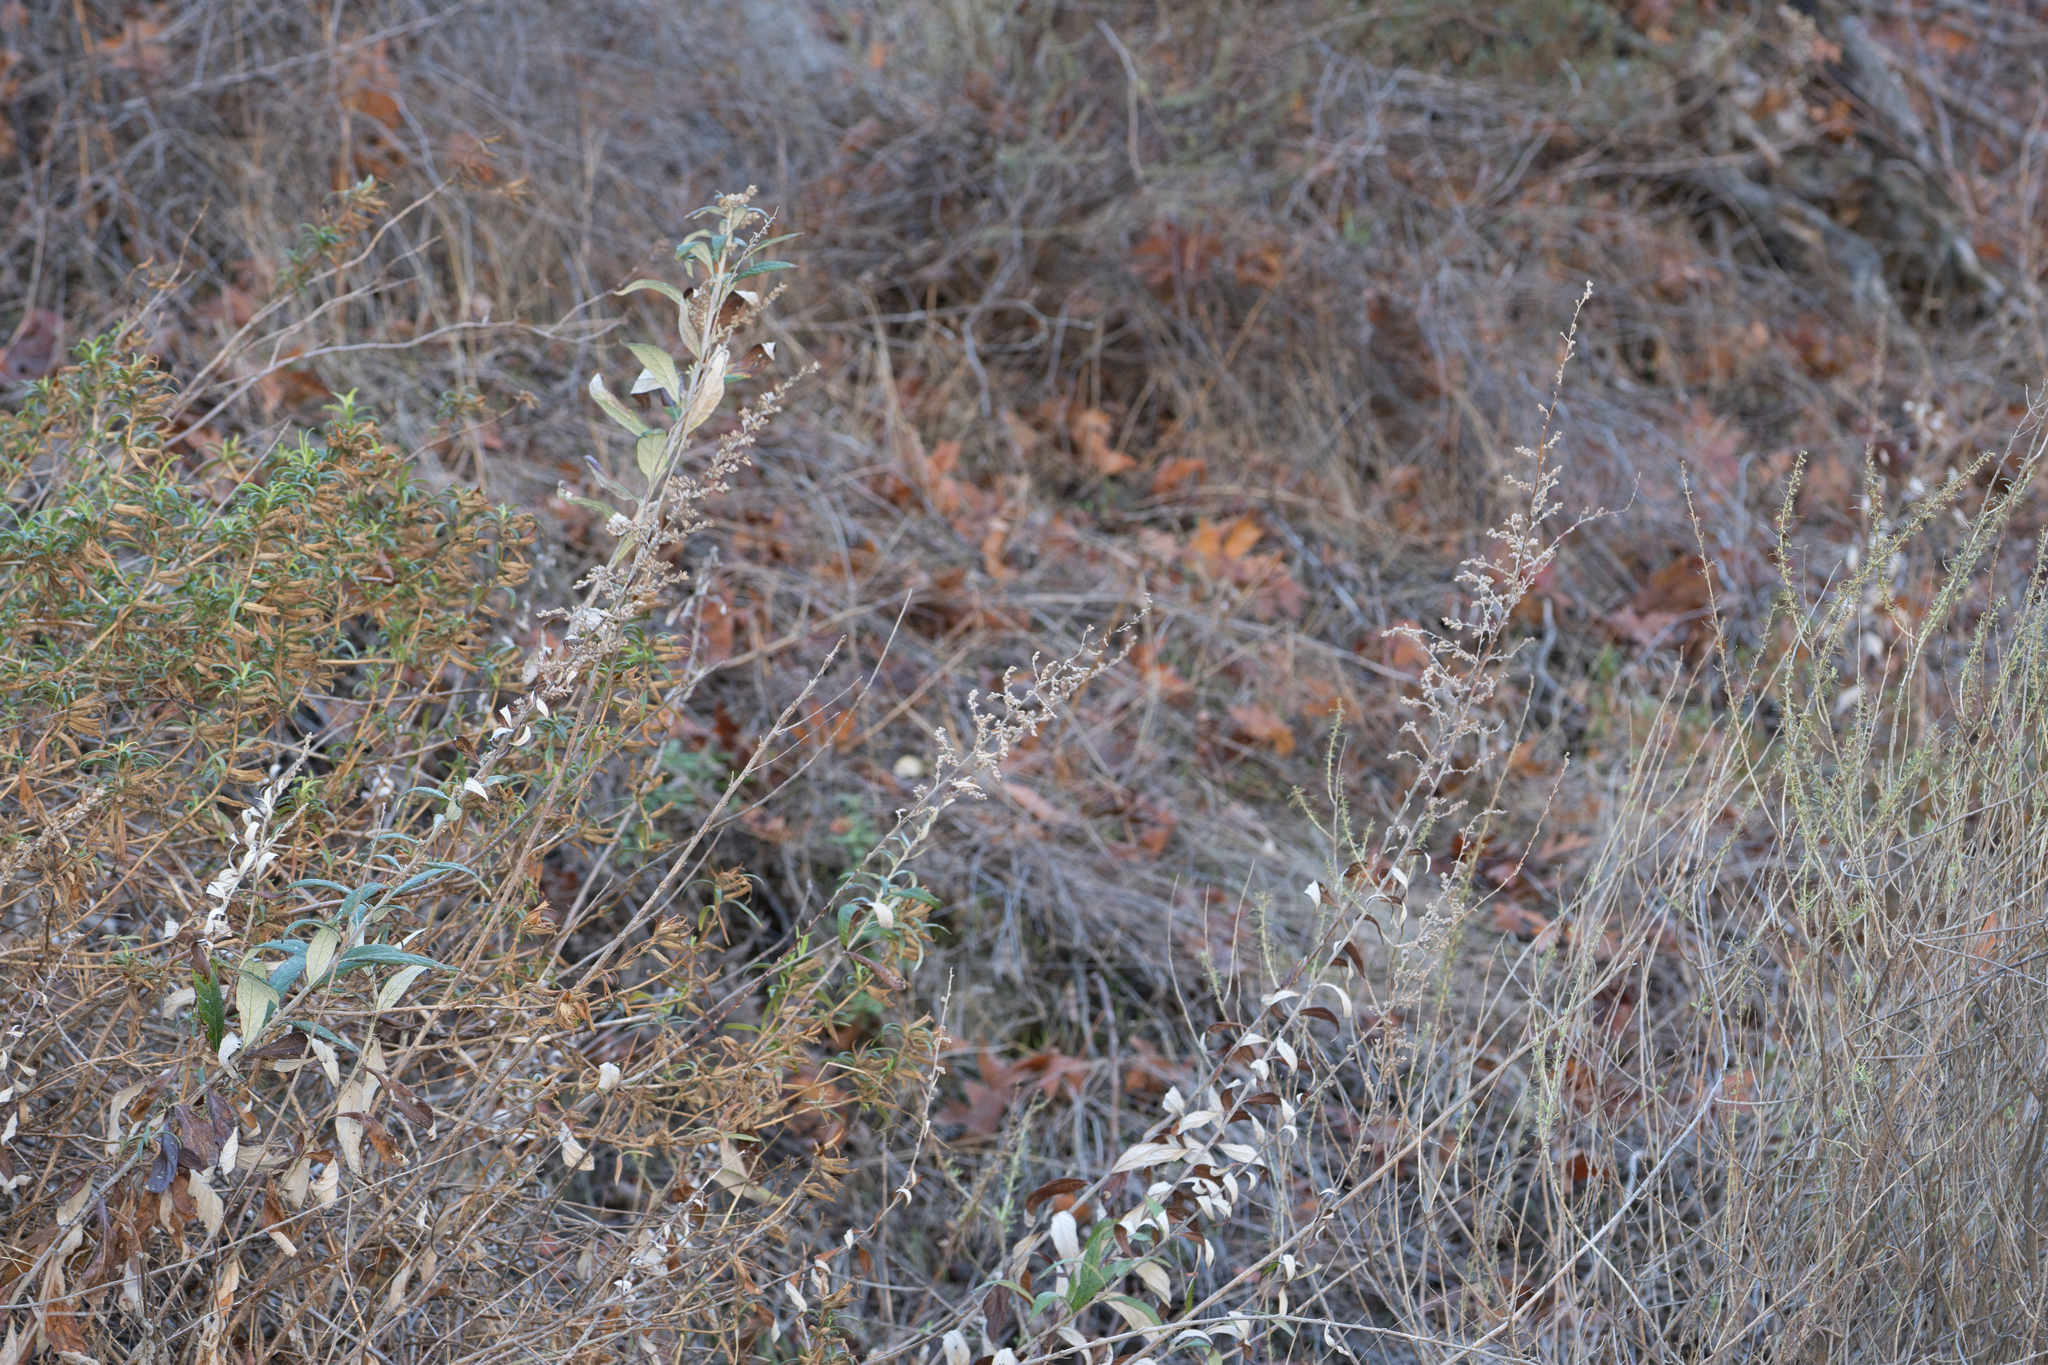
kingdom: Plantae
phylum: Tracheophyta
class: Magnoliopsida
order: Asterales
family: Asteraceae
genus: Artemisia
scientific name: Artemisia douglasiana
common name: Northwest mugwort
